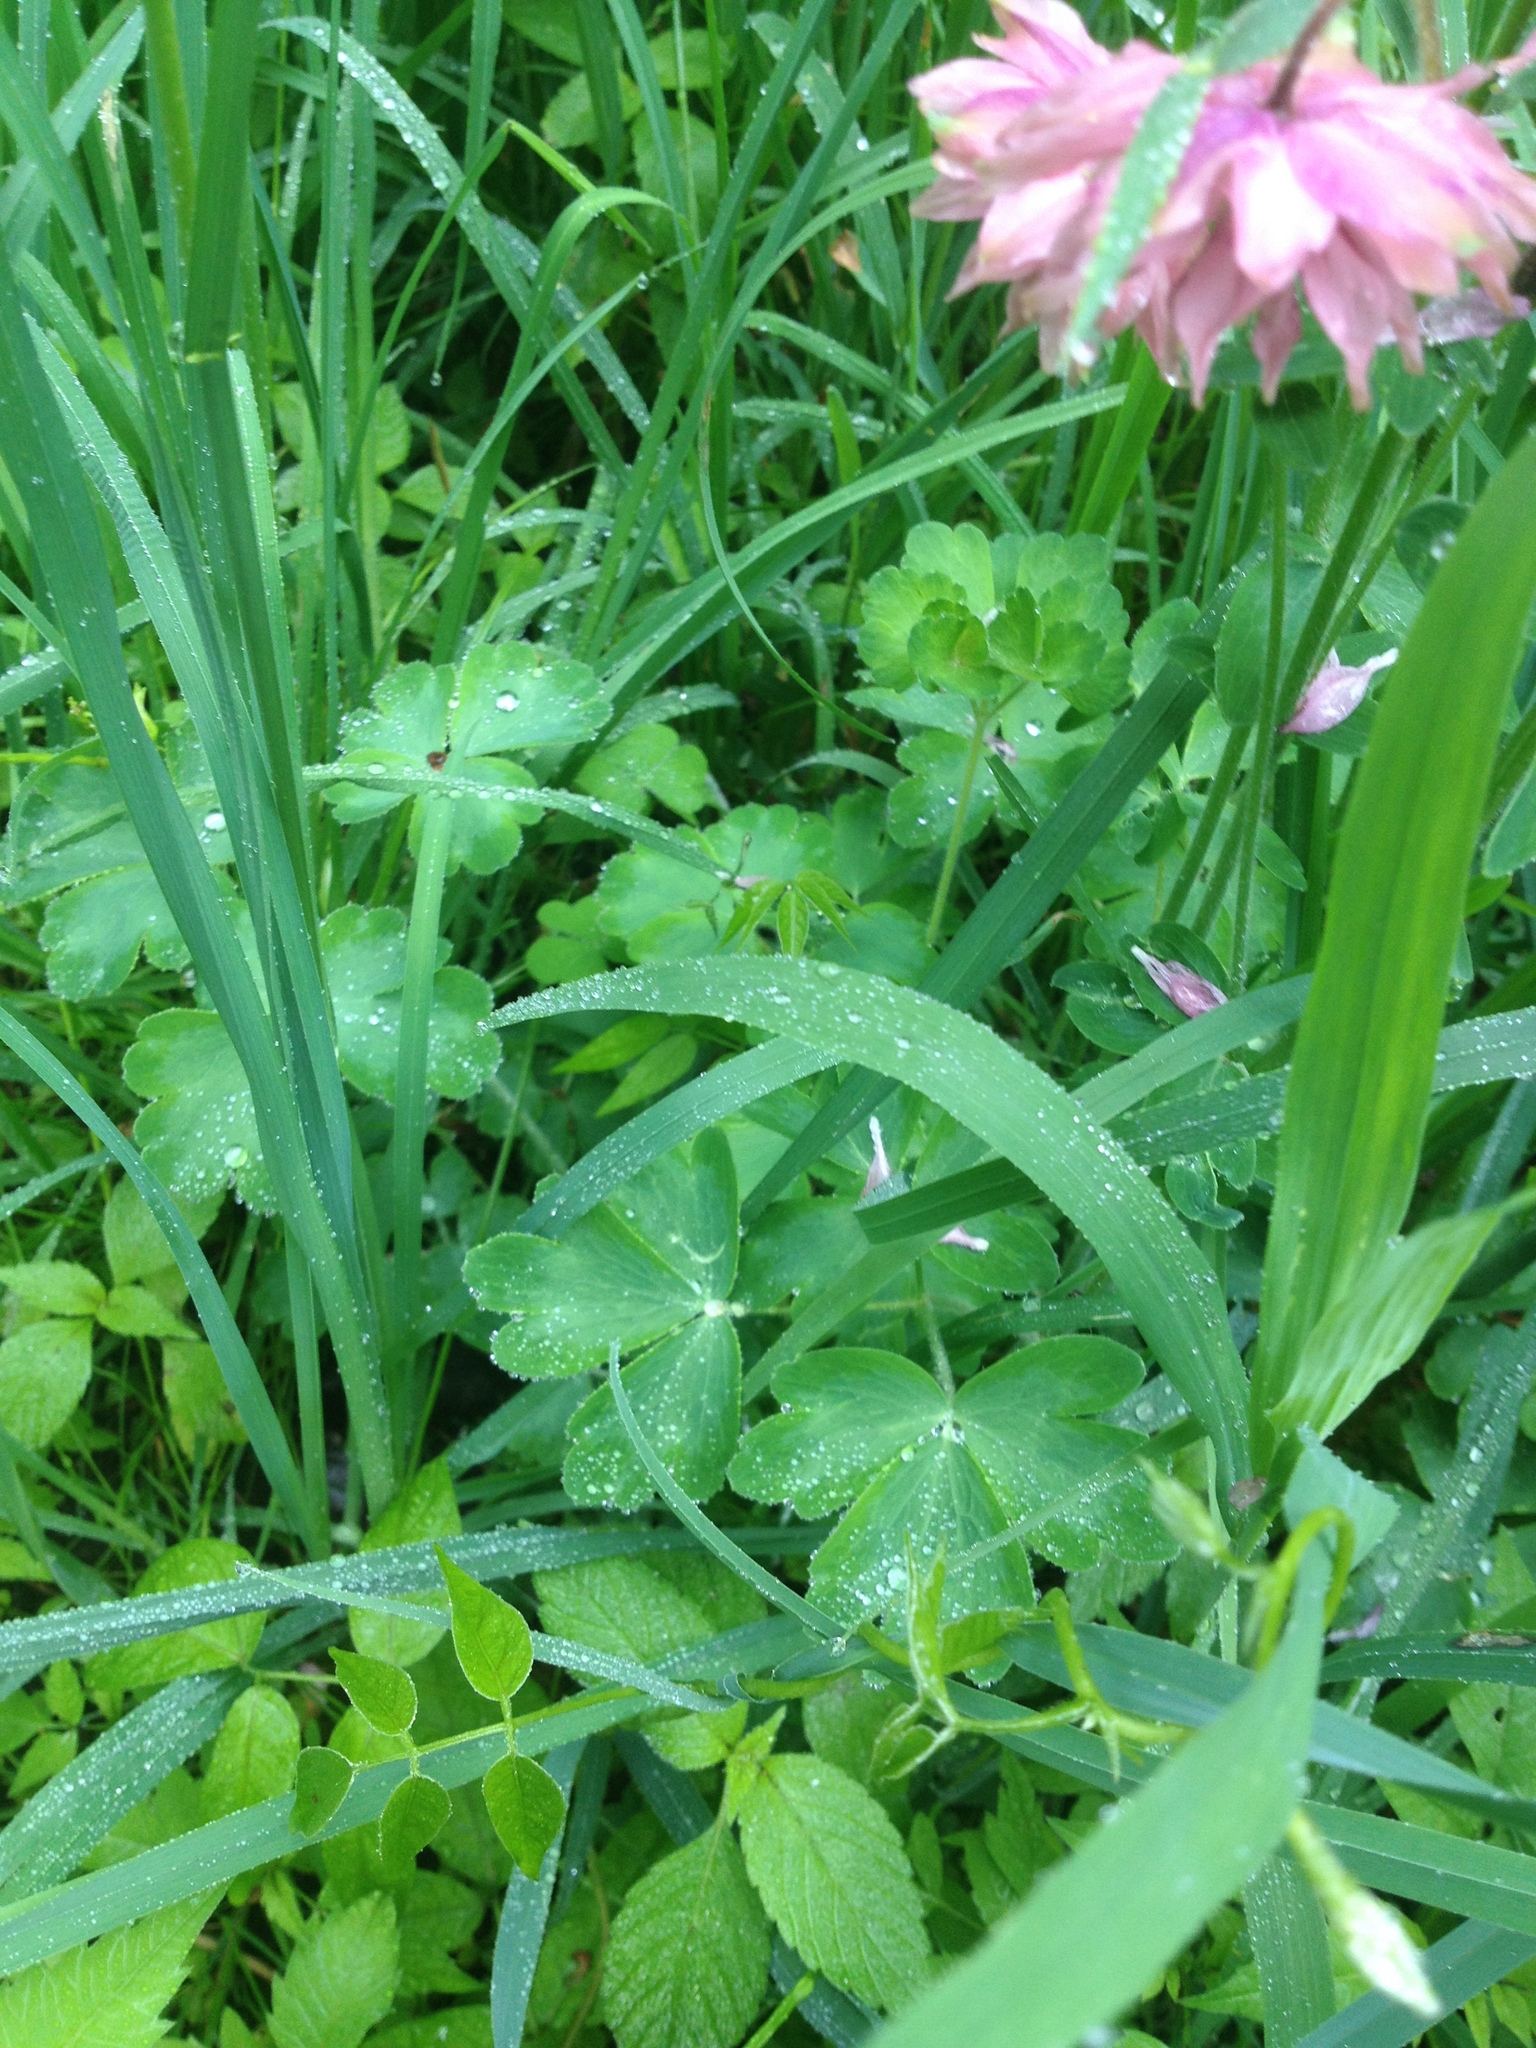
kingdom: Plantae
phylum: Tracheophyta
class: Magnoliopsida
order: Ranunculales
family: Ranunculaceae
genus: Aquilegia
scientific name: Aquilegia vulgaris
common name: Columbine
